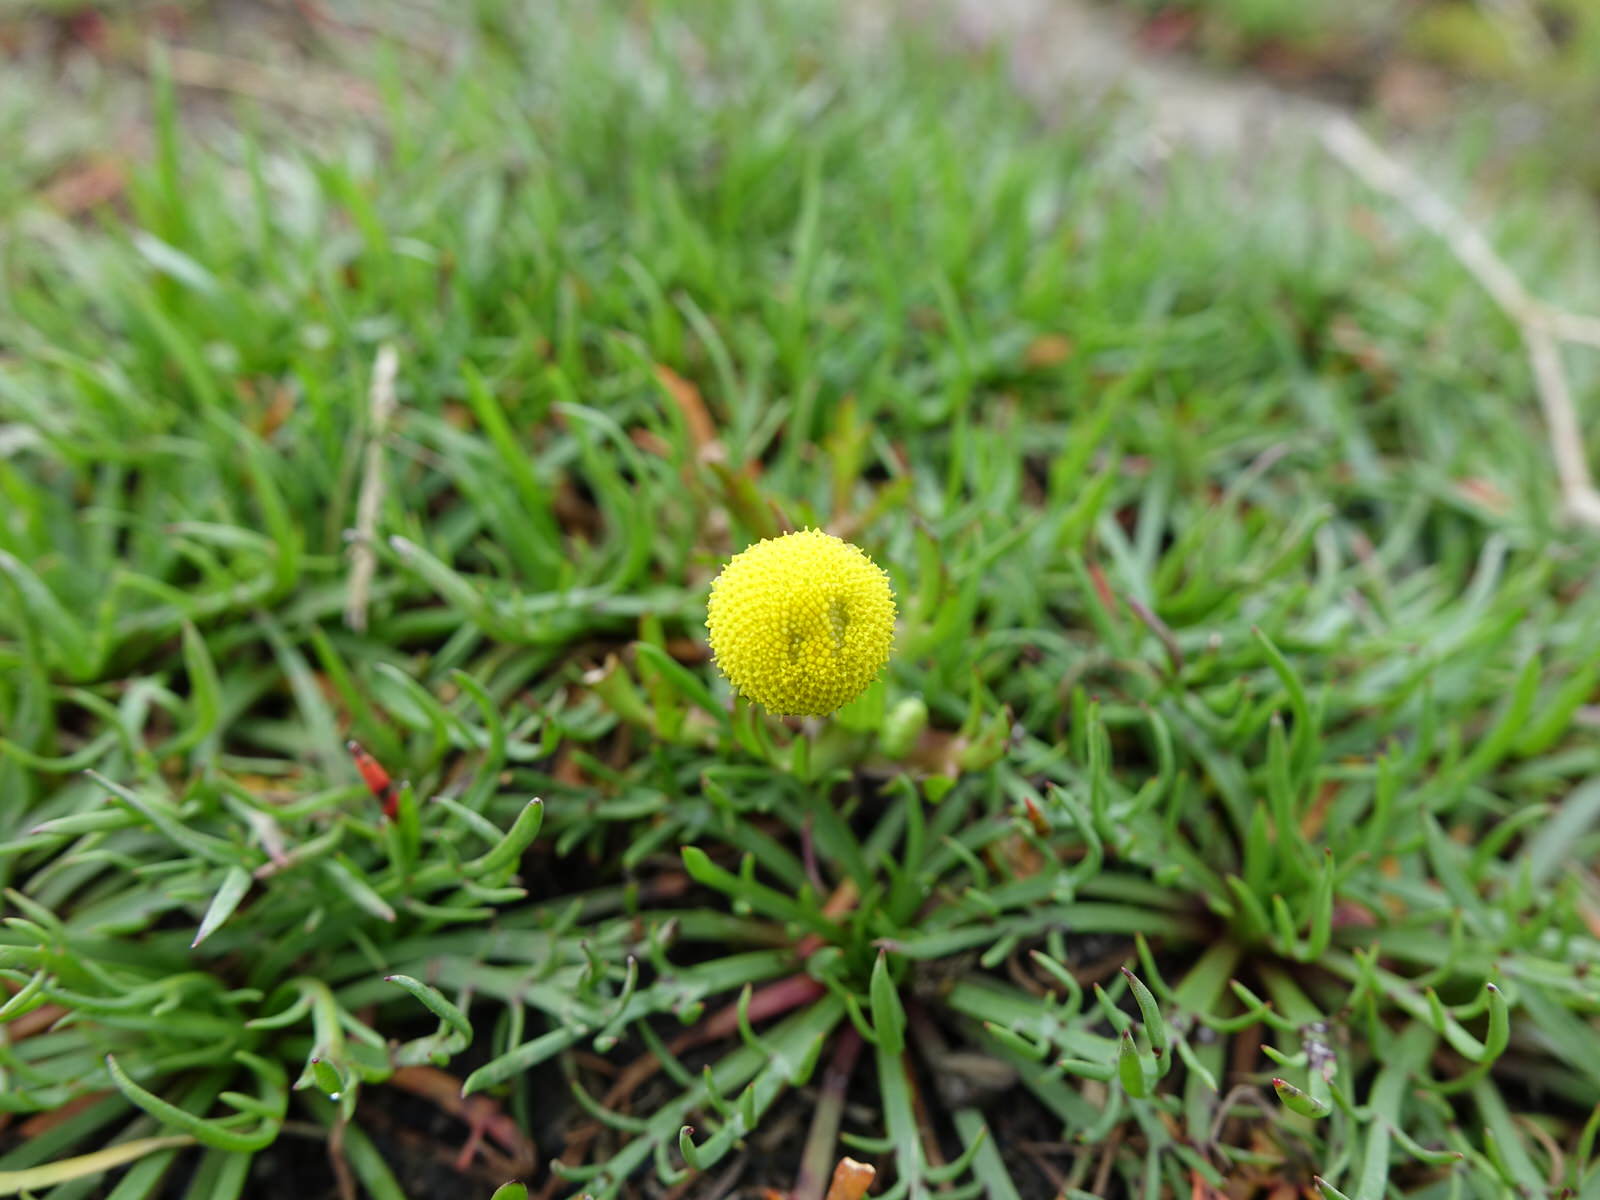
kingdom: Plantae
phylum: Tracheophyta
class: Magnoliopsida
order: Asterales
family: Asteraceae
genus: Cotula
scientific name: Cotula coronopifolia
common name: Buttonweed
